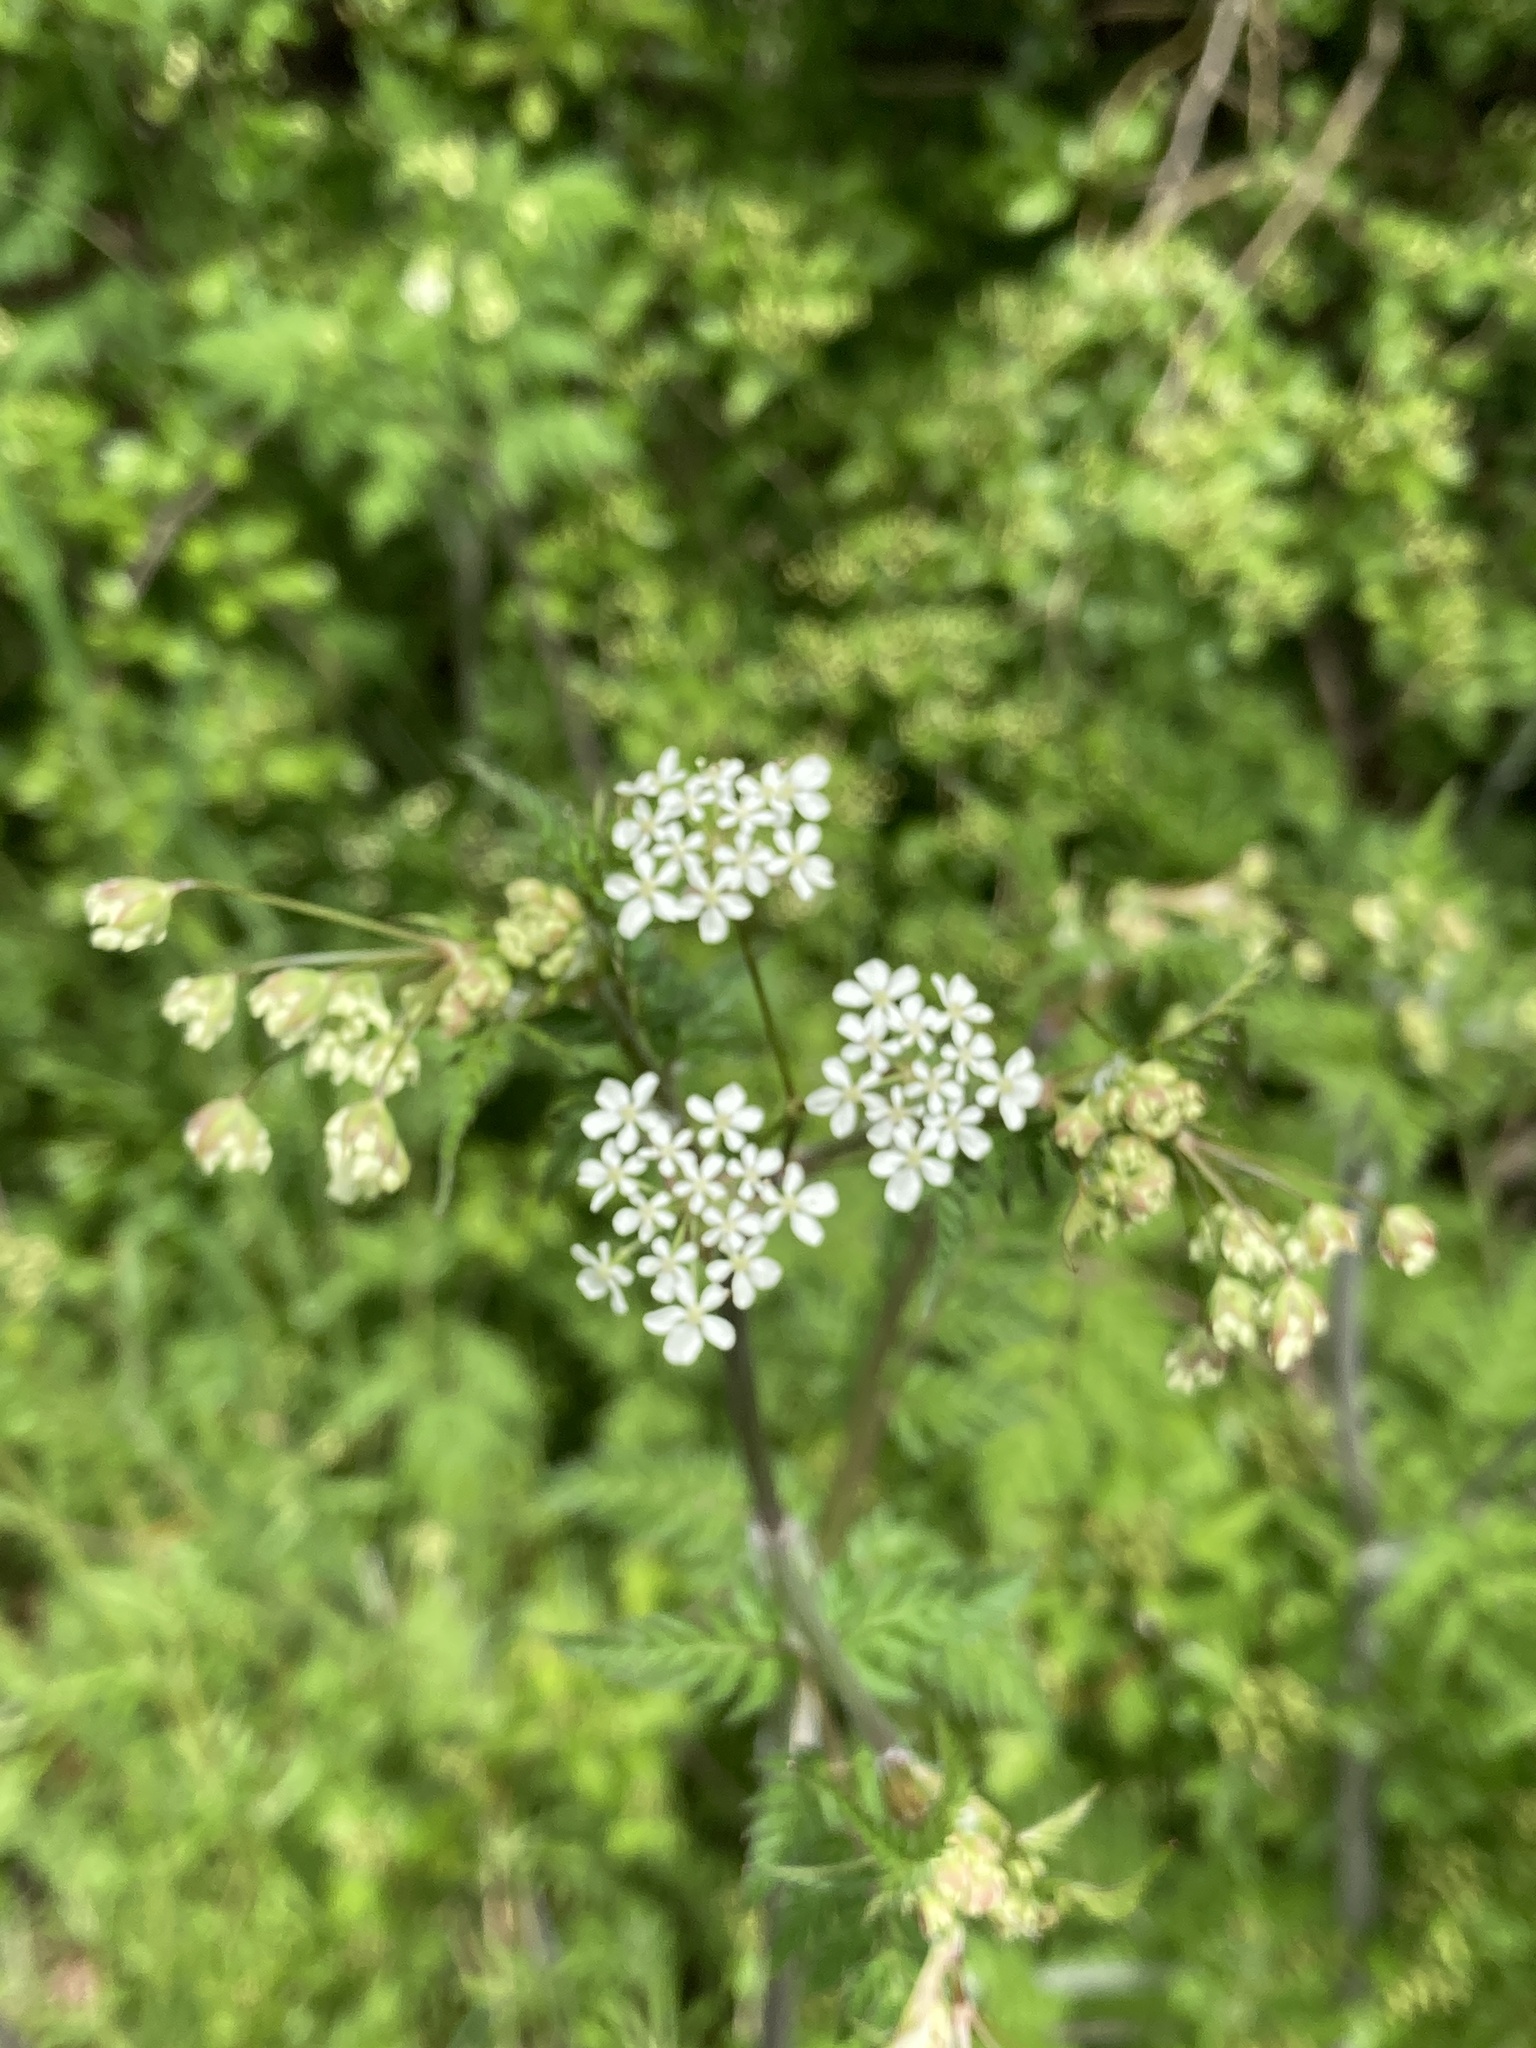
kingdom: Plantae
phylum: Tracheophyta
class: Magnoliopsida
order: Apiales
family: Apiaceae
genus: Anthriscus
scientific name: Anthriscus sylvestris
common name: Cow parsley
